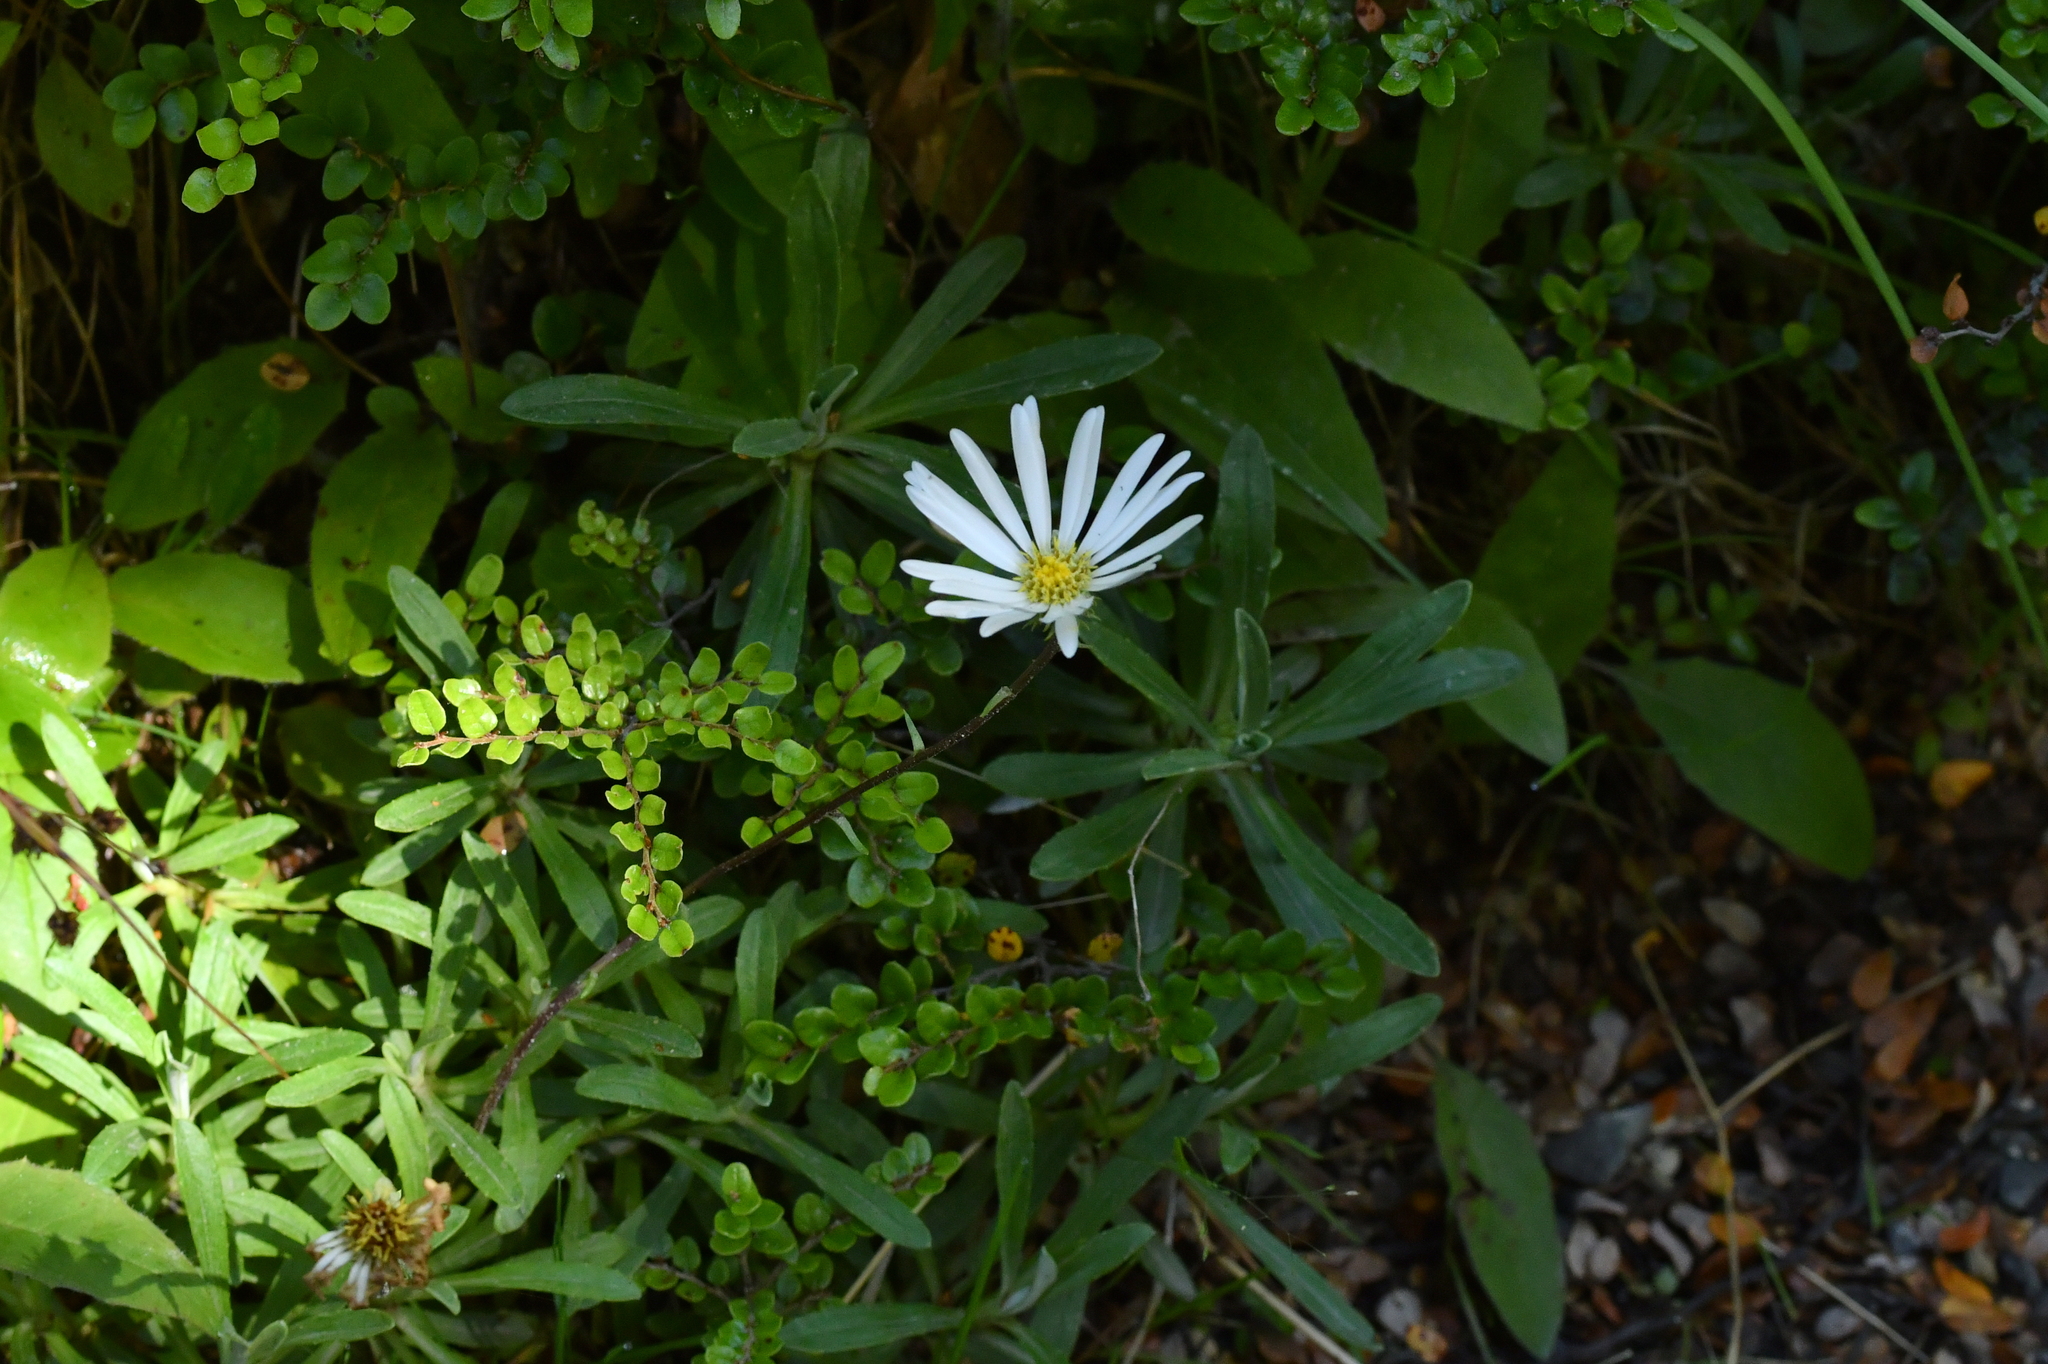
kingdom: Plantae
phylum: Tracheophyta
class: Magnoliopsida
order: Asterales
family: Asteraceae
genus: Celmisia
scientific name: Celmisia angustifolia
